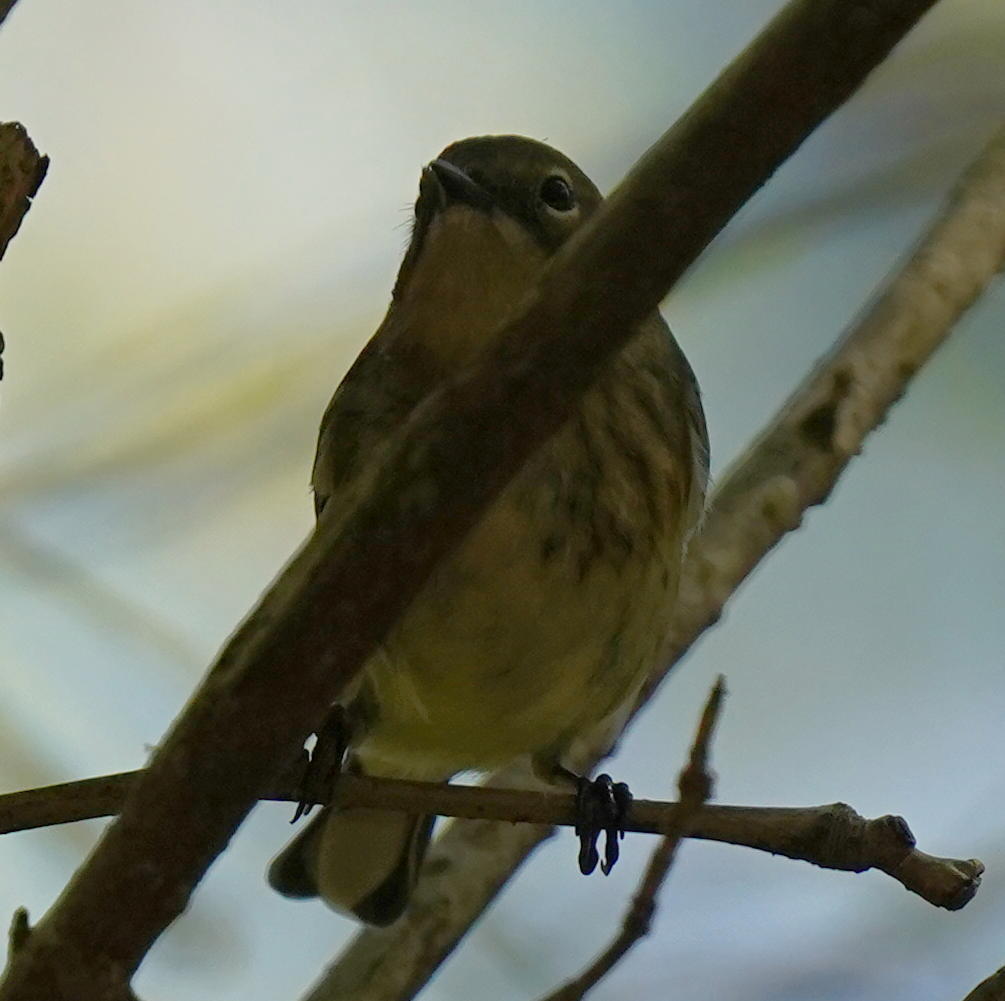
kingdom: Animalia
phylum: Chordata
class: Aves
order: Passeriformes
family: Parulidae
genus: Setophaga
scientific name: Setophaga coronata
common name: Myrtle warbler
